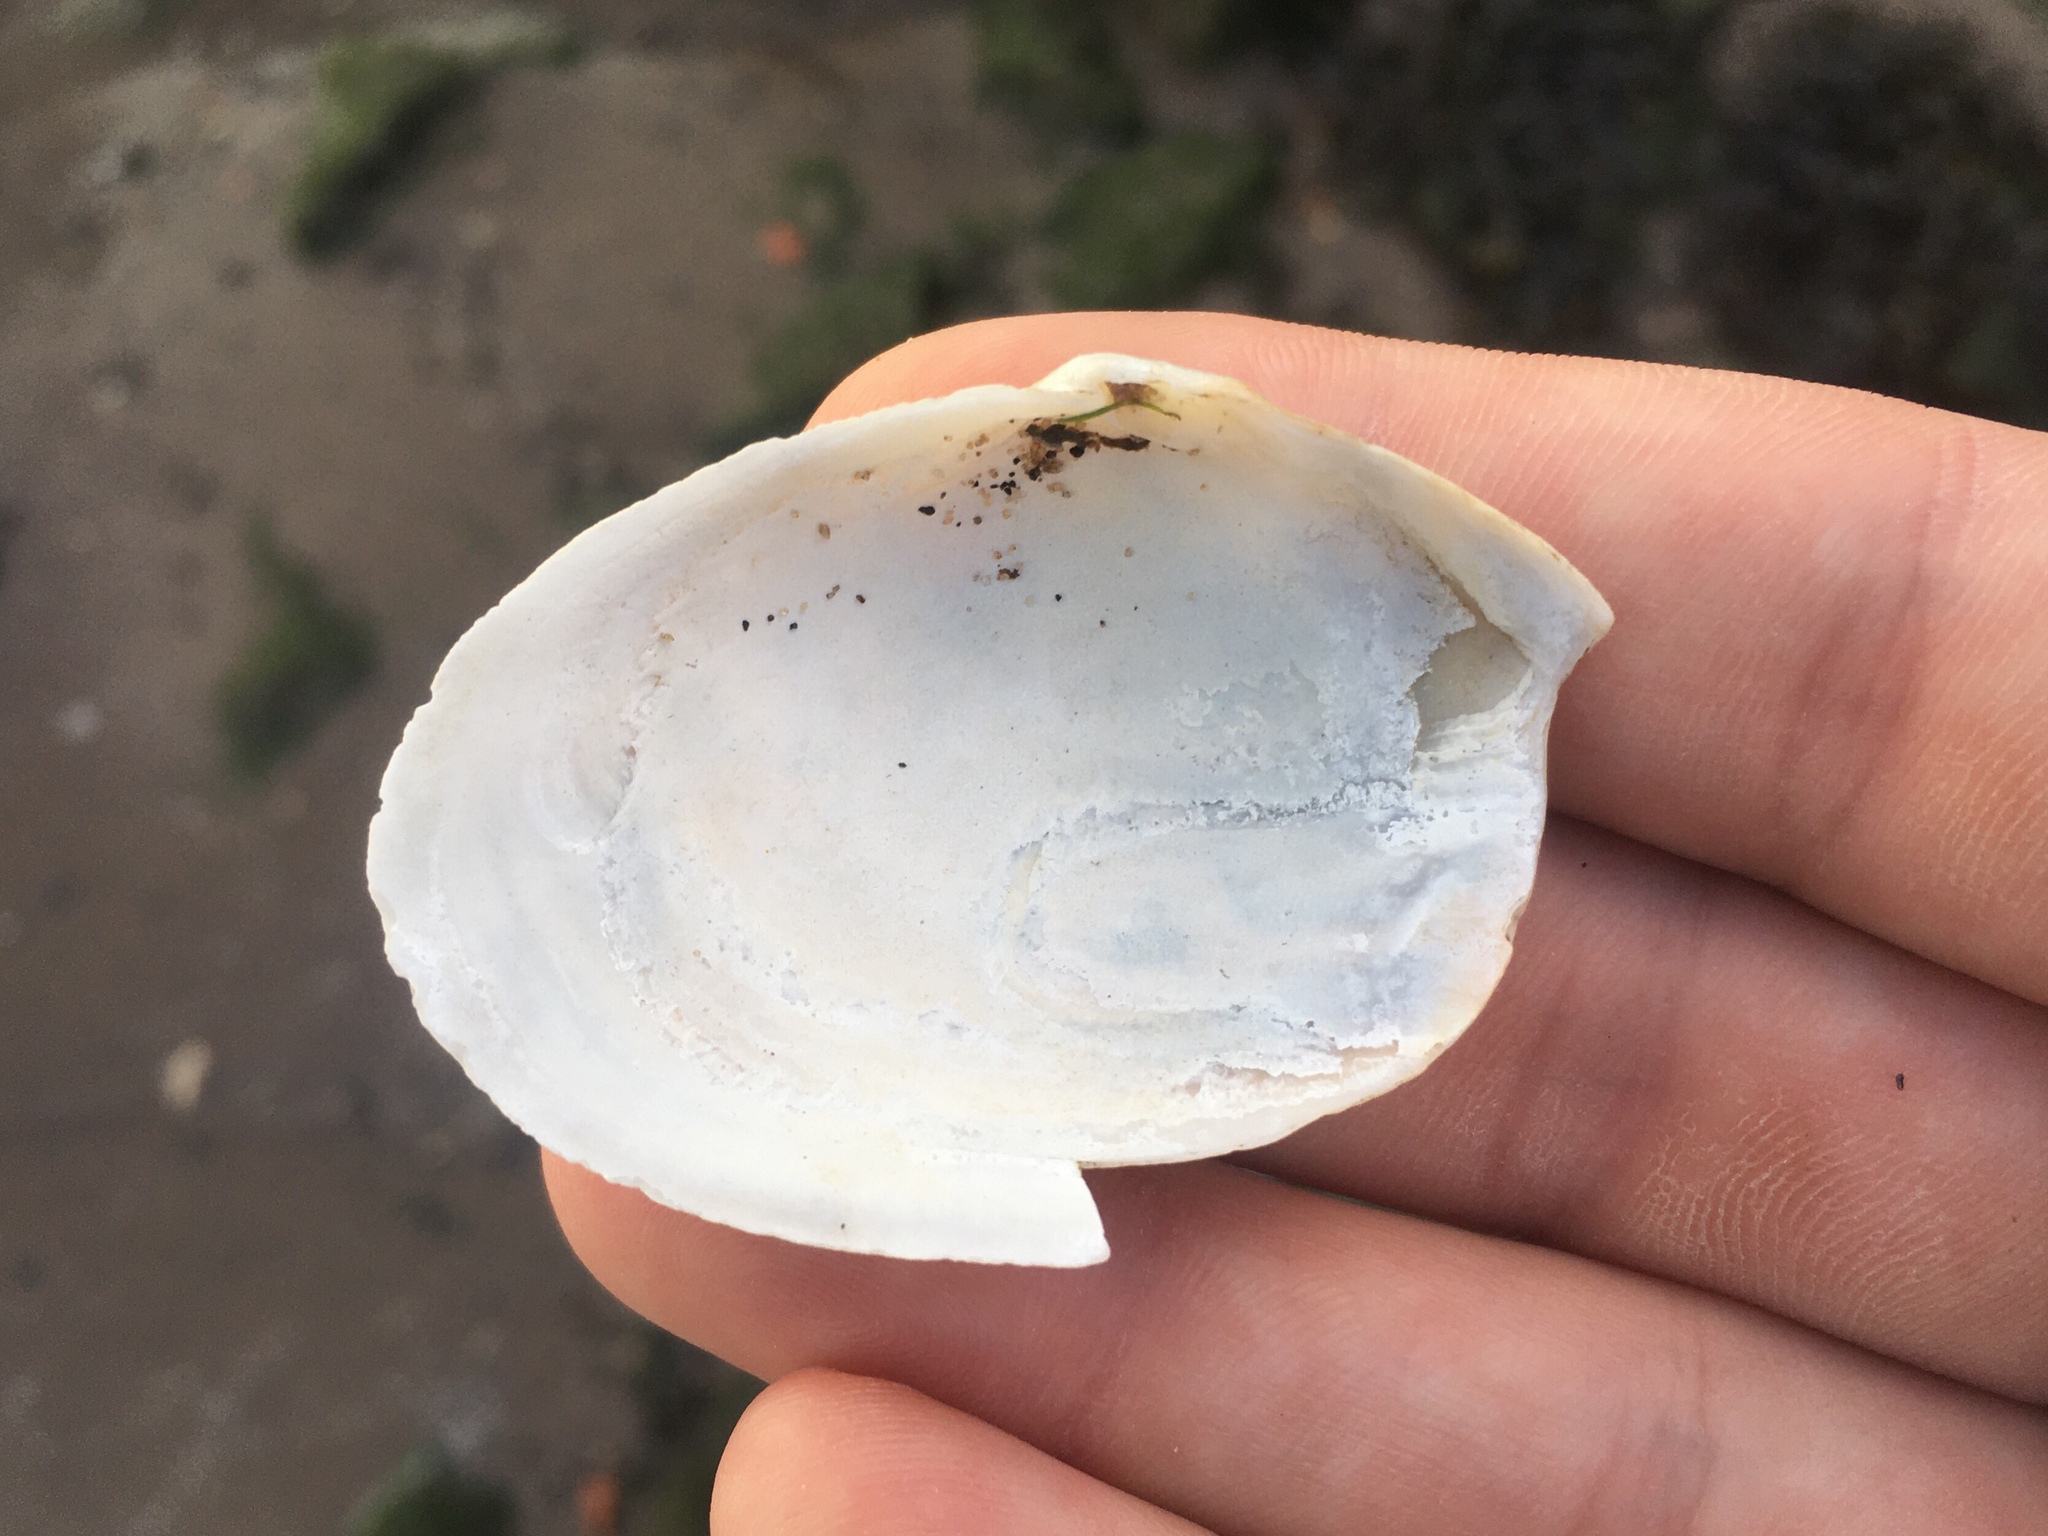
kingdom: Animalia
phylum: Mollusca
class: Bivalvia
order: Myida
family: Myidae
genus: Mya
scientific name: Mya arenaria
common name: Soft-shelled clam
